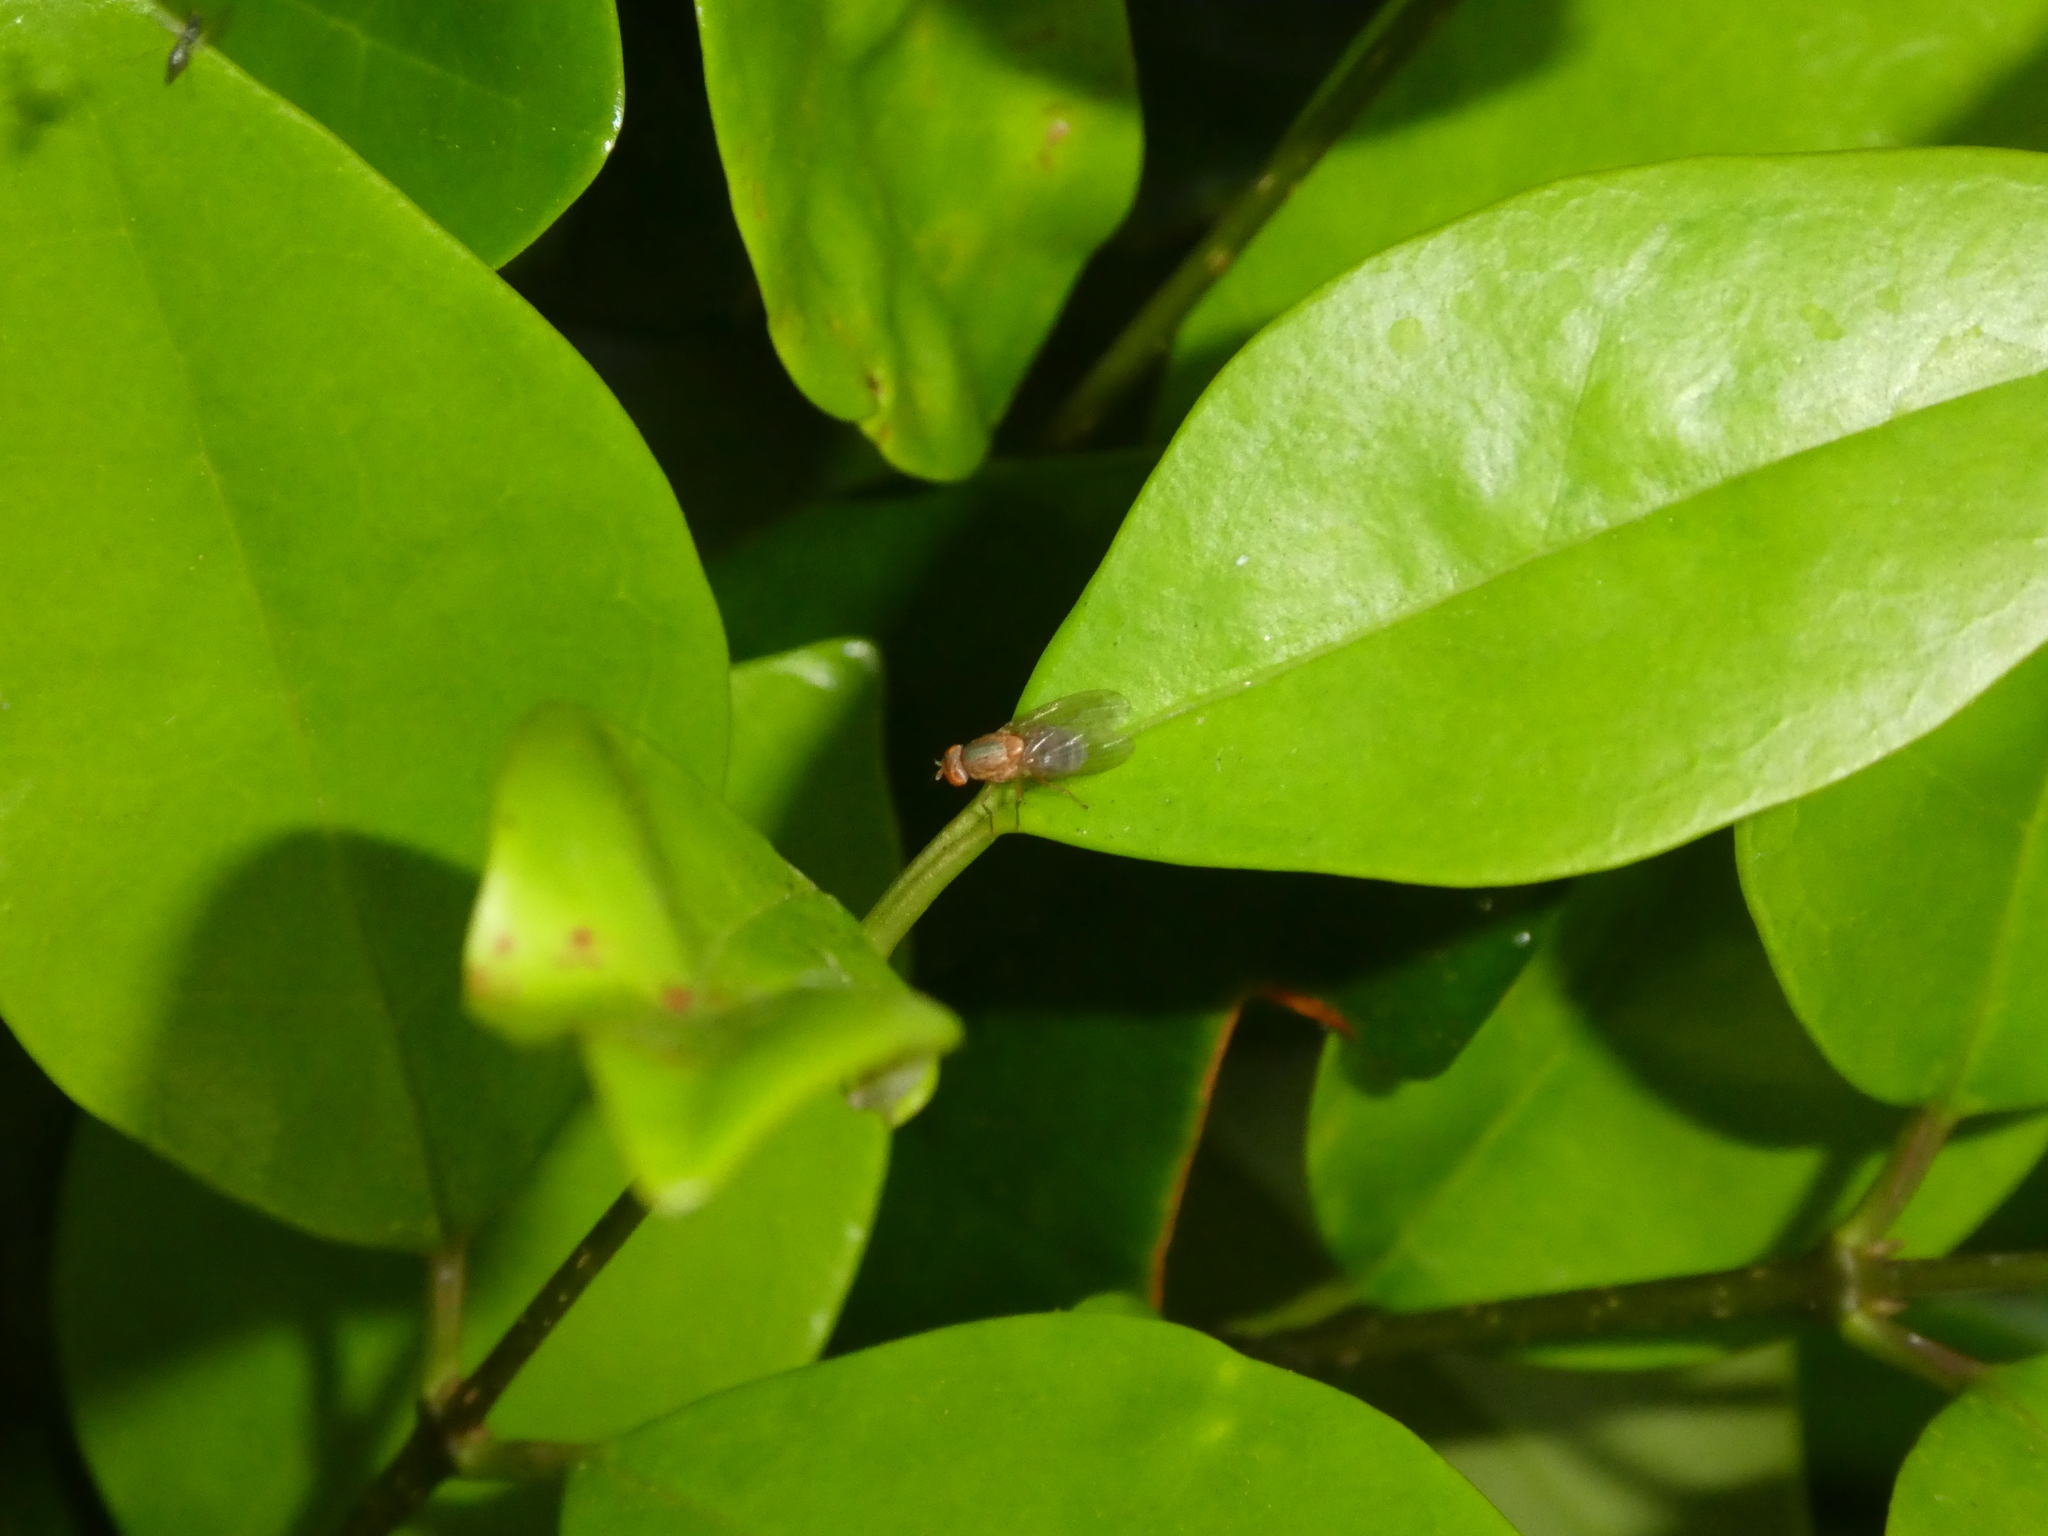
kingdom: Animalia
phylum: Arthropoda
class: Insecta
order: Diptera
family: Lauxaniidae
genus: Minettia
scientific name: Minettia flaveola
